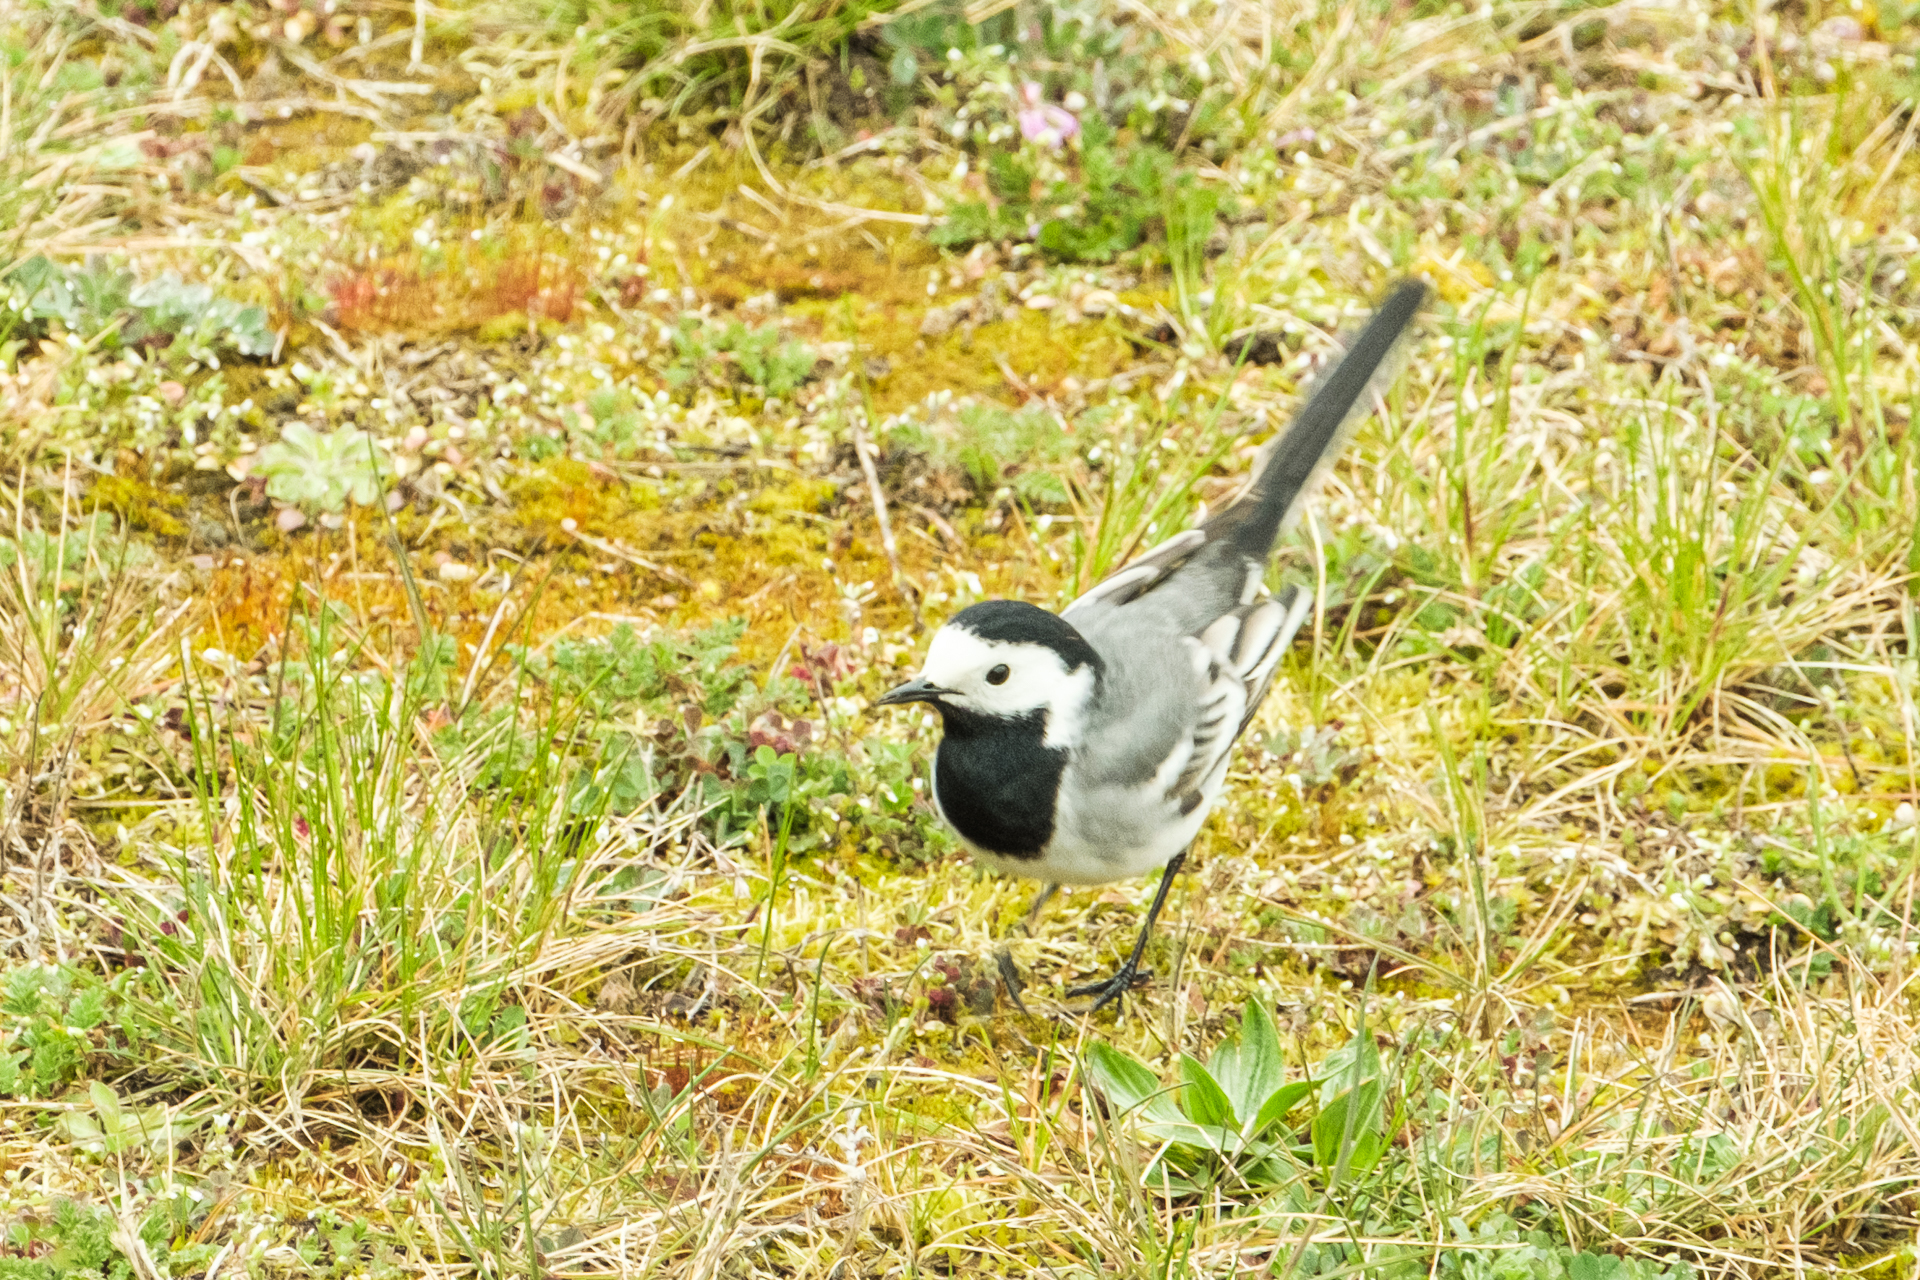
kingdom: Animalia
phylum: Chordata
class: Aves
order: Passeriformes
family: Motacillidae
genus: Motacilla
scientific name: Motacilla alba
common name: White wagtail
